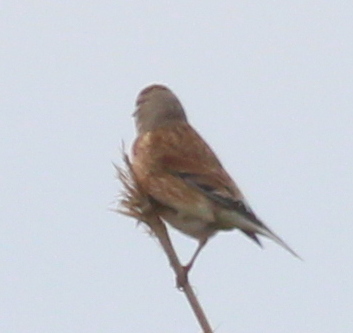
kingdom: Animalia
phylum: Chordata
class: Aves
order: Passeriformes
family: Fringillidae
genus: Linaria
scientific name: Linaria cannabina
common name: Common linnet
